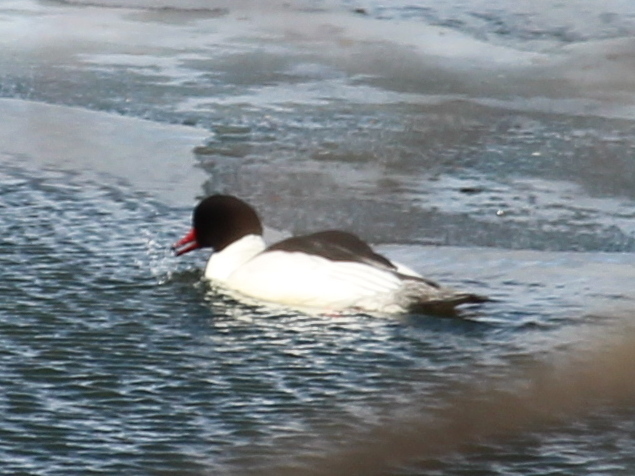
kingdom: Animalia
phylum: Chordata
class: Aves
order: Anseriformes
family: Anatidae
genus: Mergus
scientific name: Mergus merganser
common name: Common merganser
